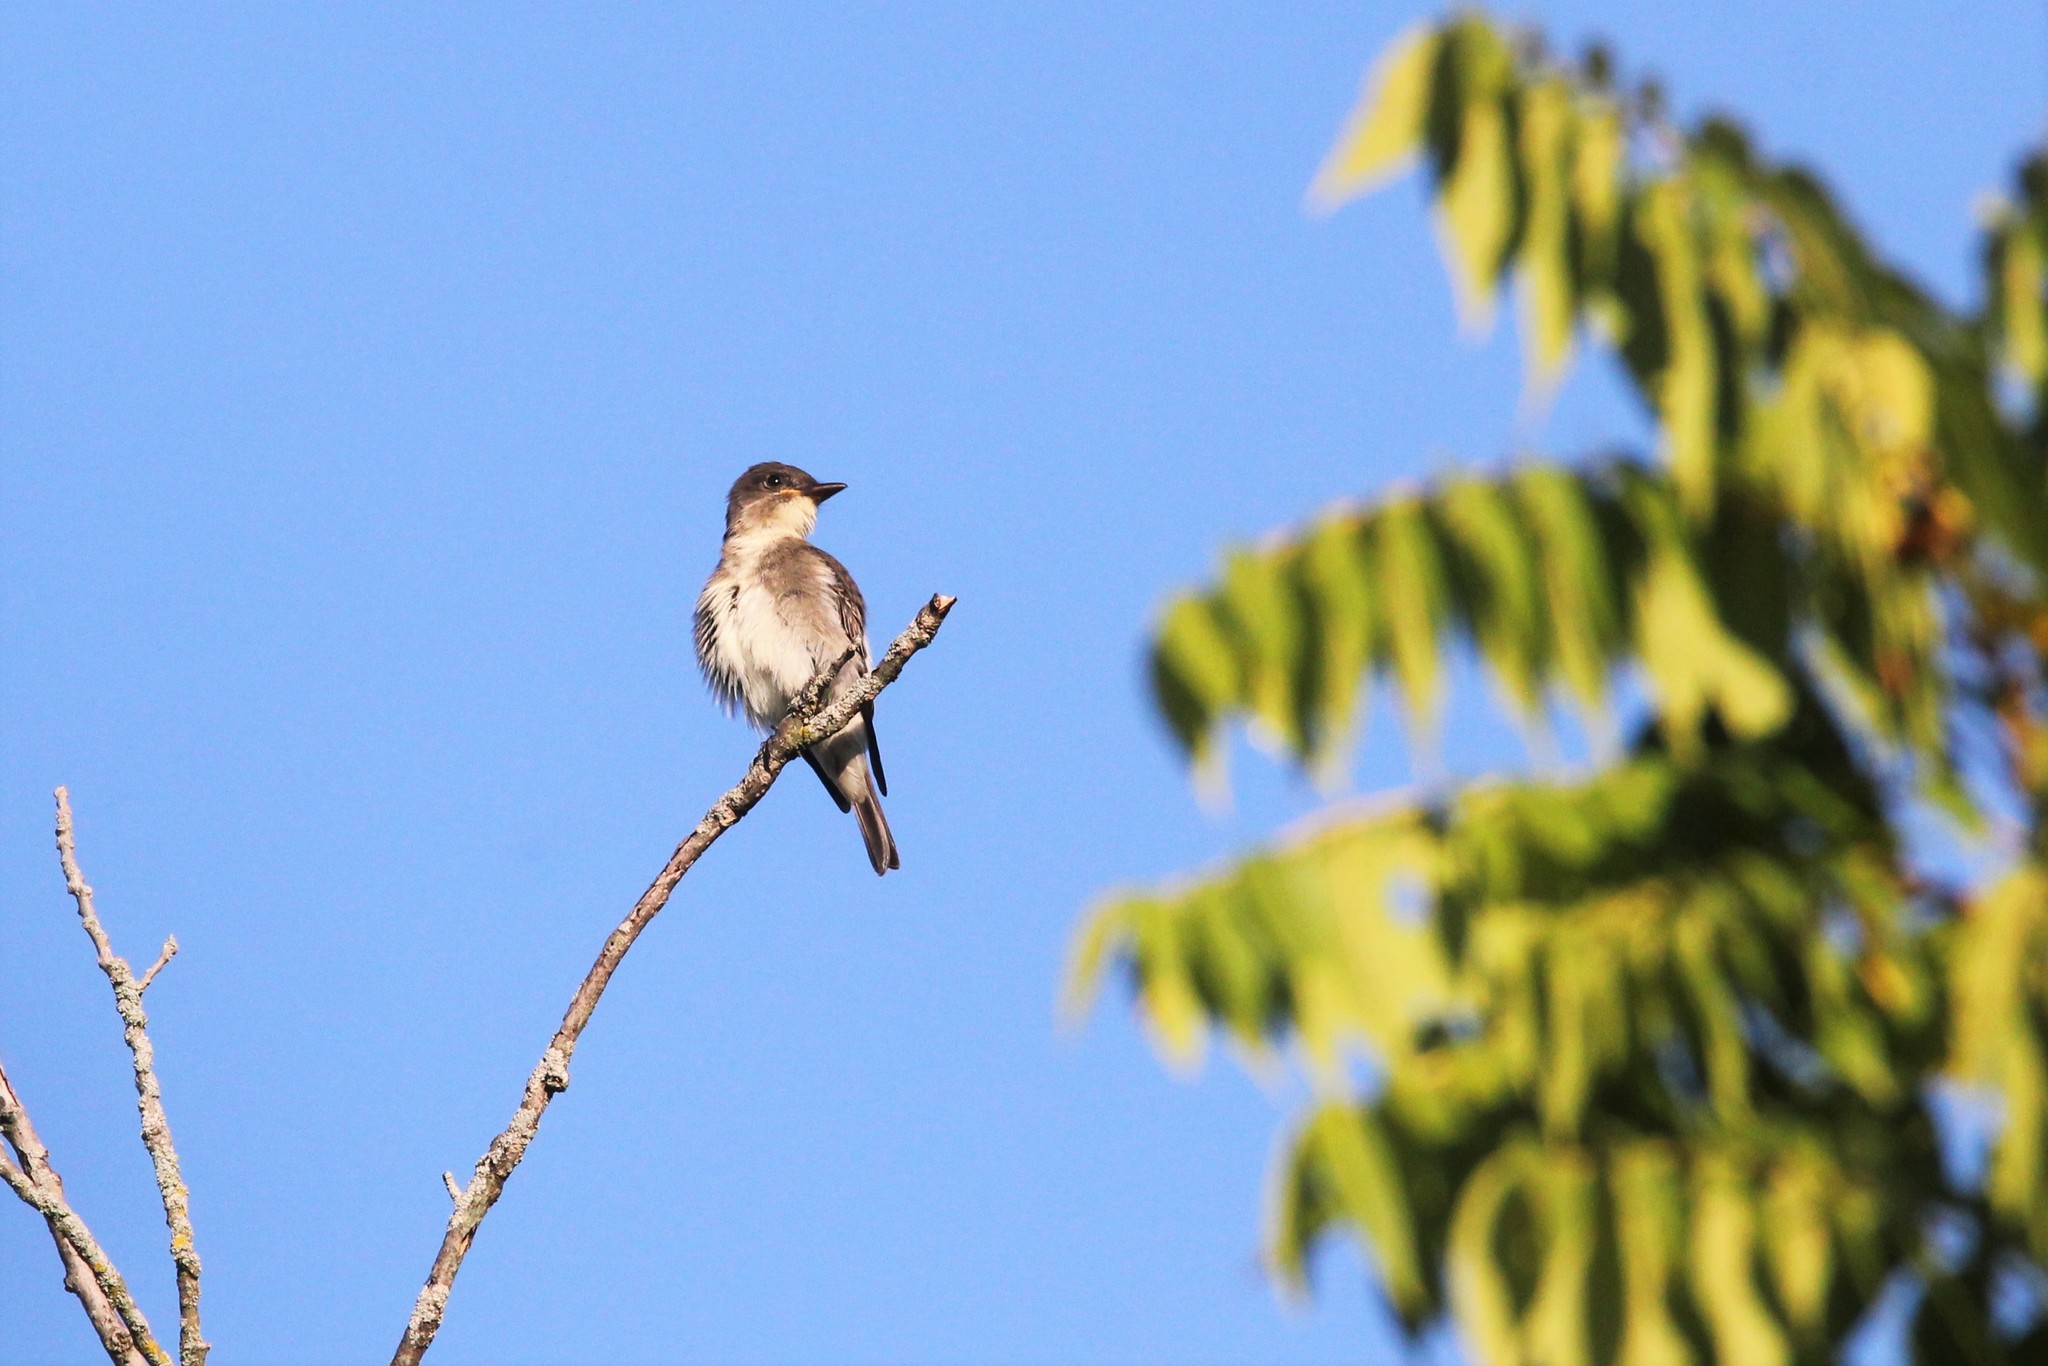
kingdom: Animalia
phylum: Chordata
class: Aves
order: Passeriformes
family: Tyrannidae
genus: Contopus
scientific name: Contopus cooperi
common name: Olive-sided flycatcher
